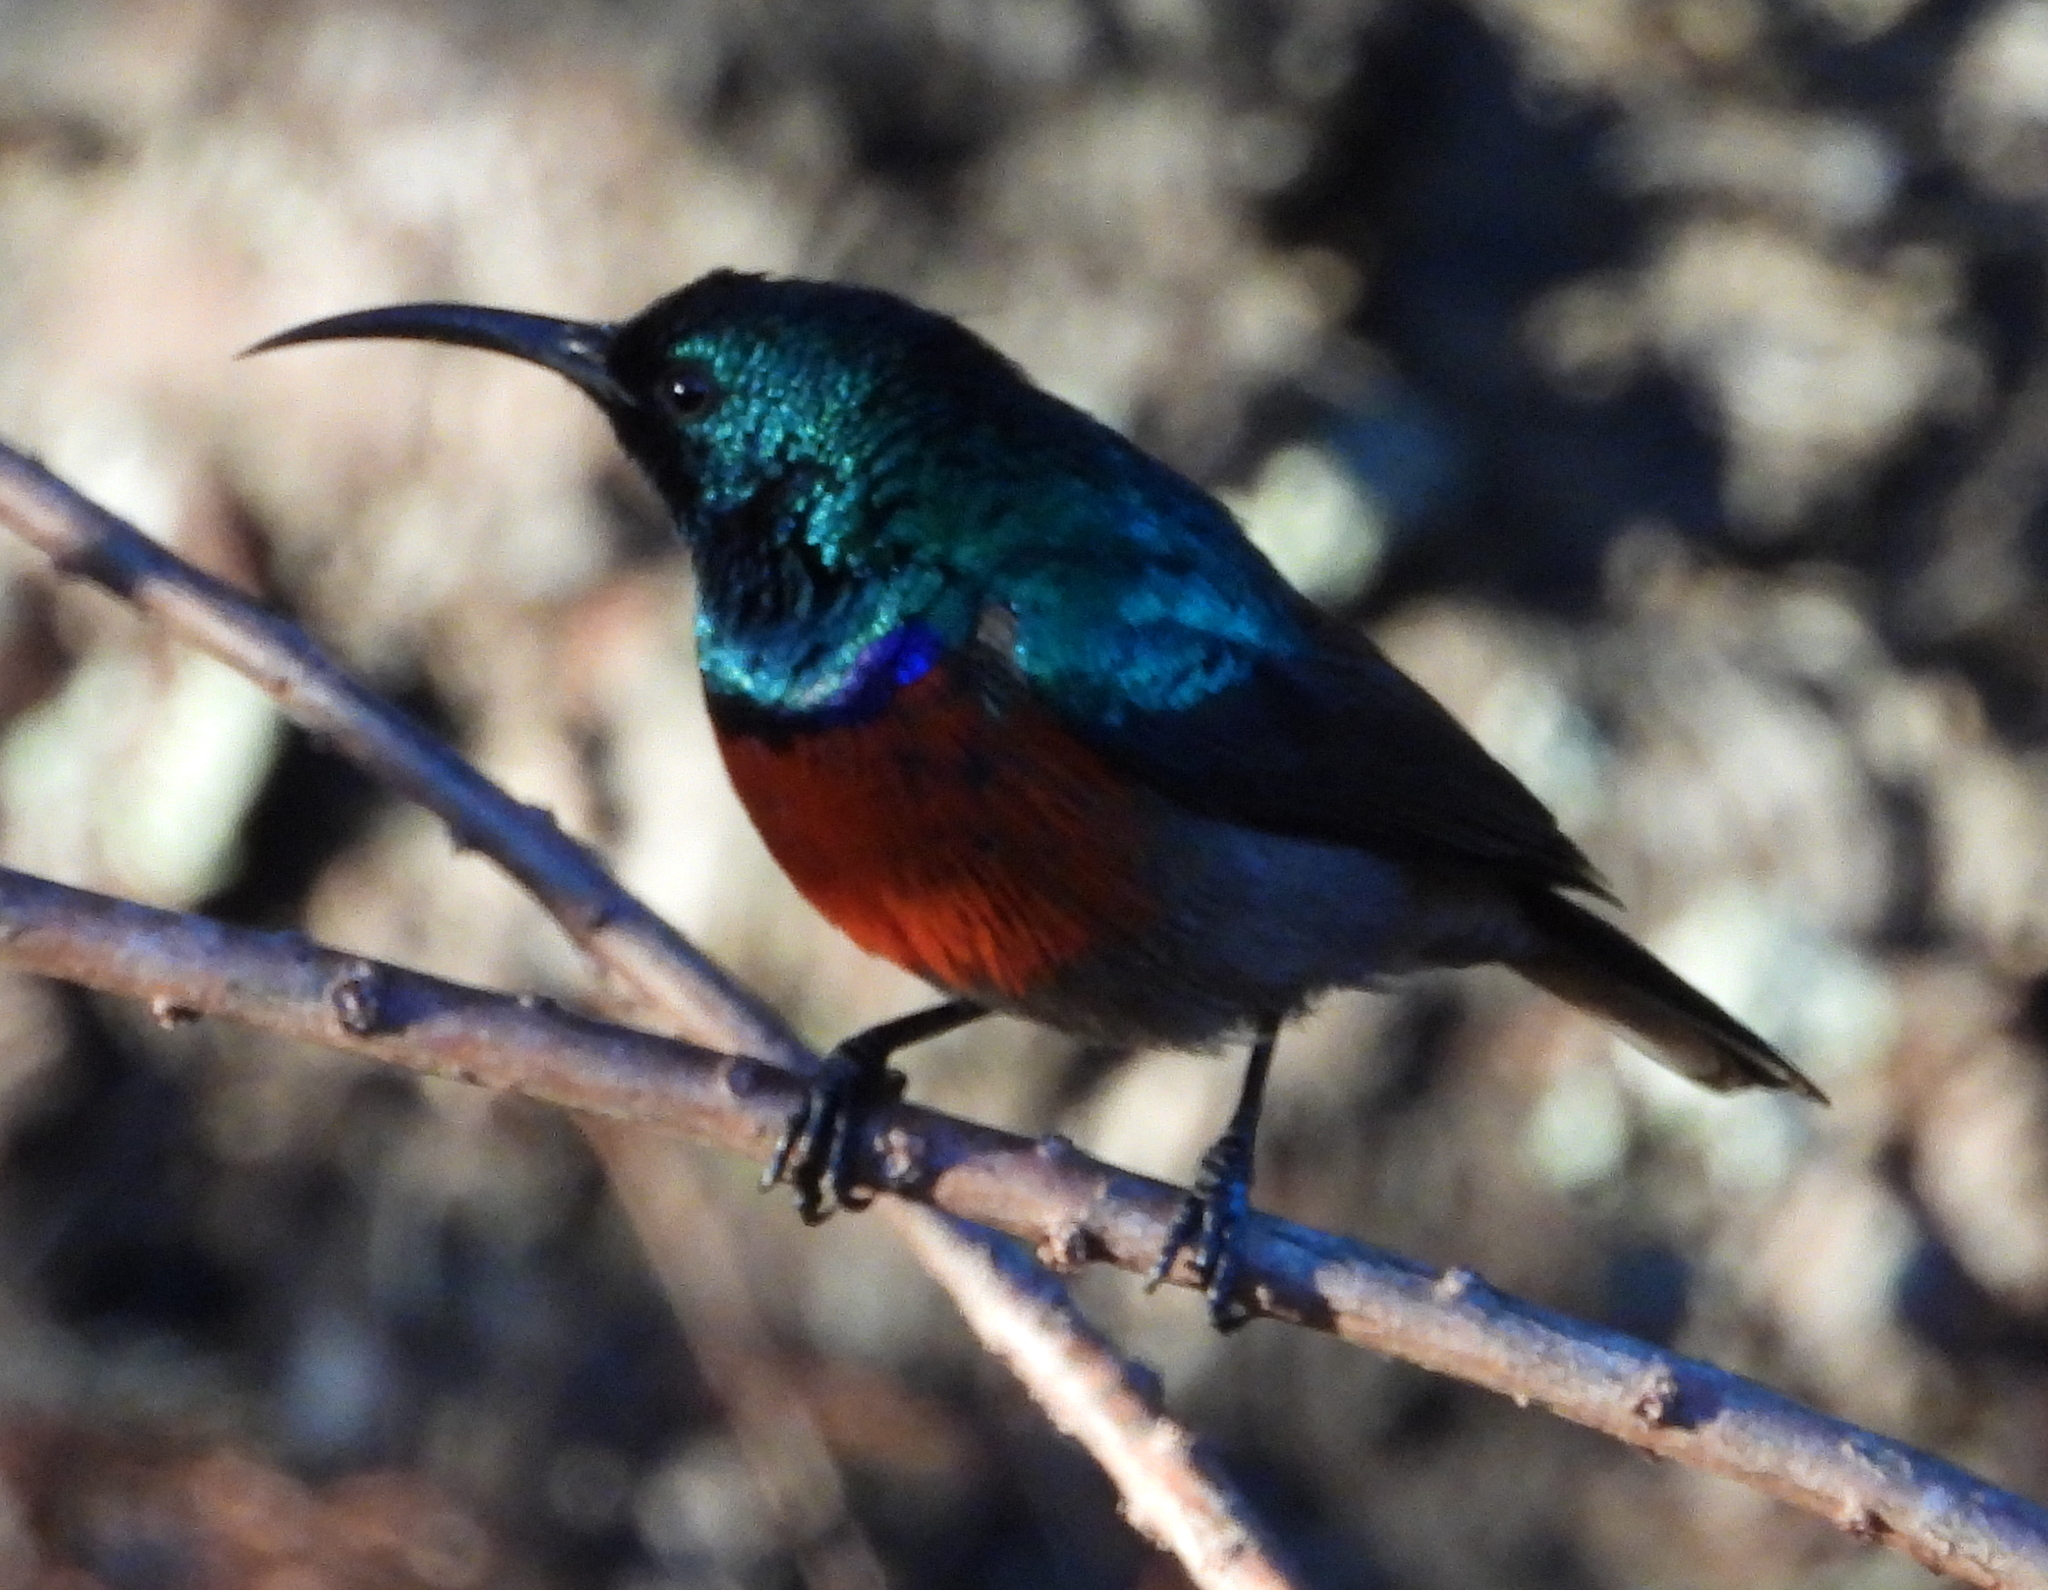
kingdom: Animalia
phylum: Chordata
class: Aves
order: Passeriformes
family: Nectariniidae
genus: Cinnyris
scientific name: Cinnyris afer
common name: Greater double-collared sunbird
